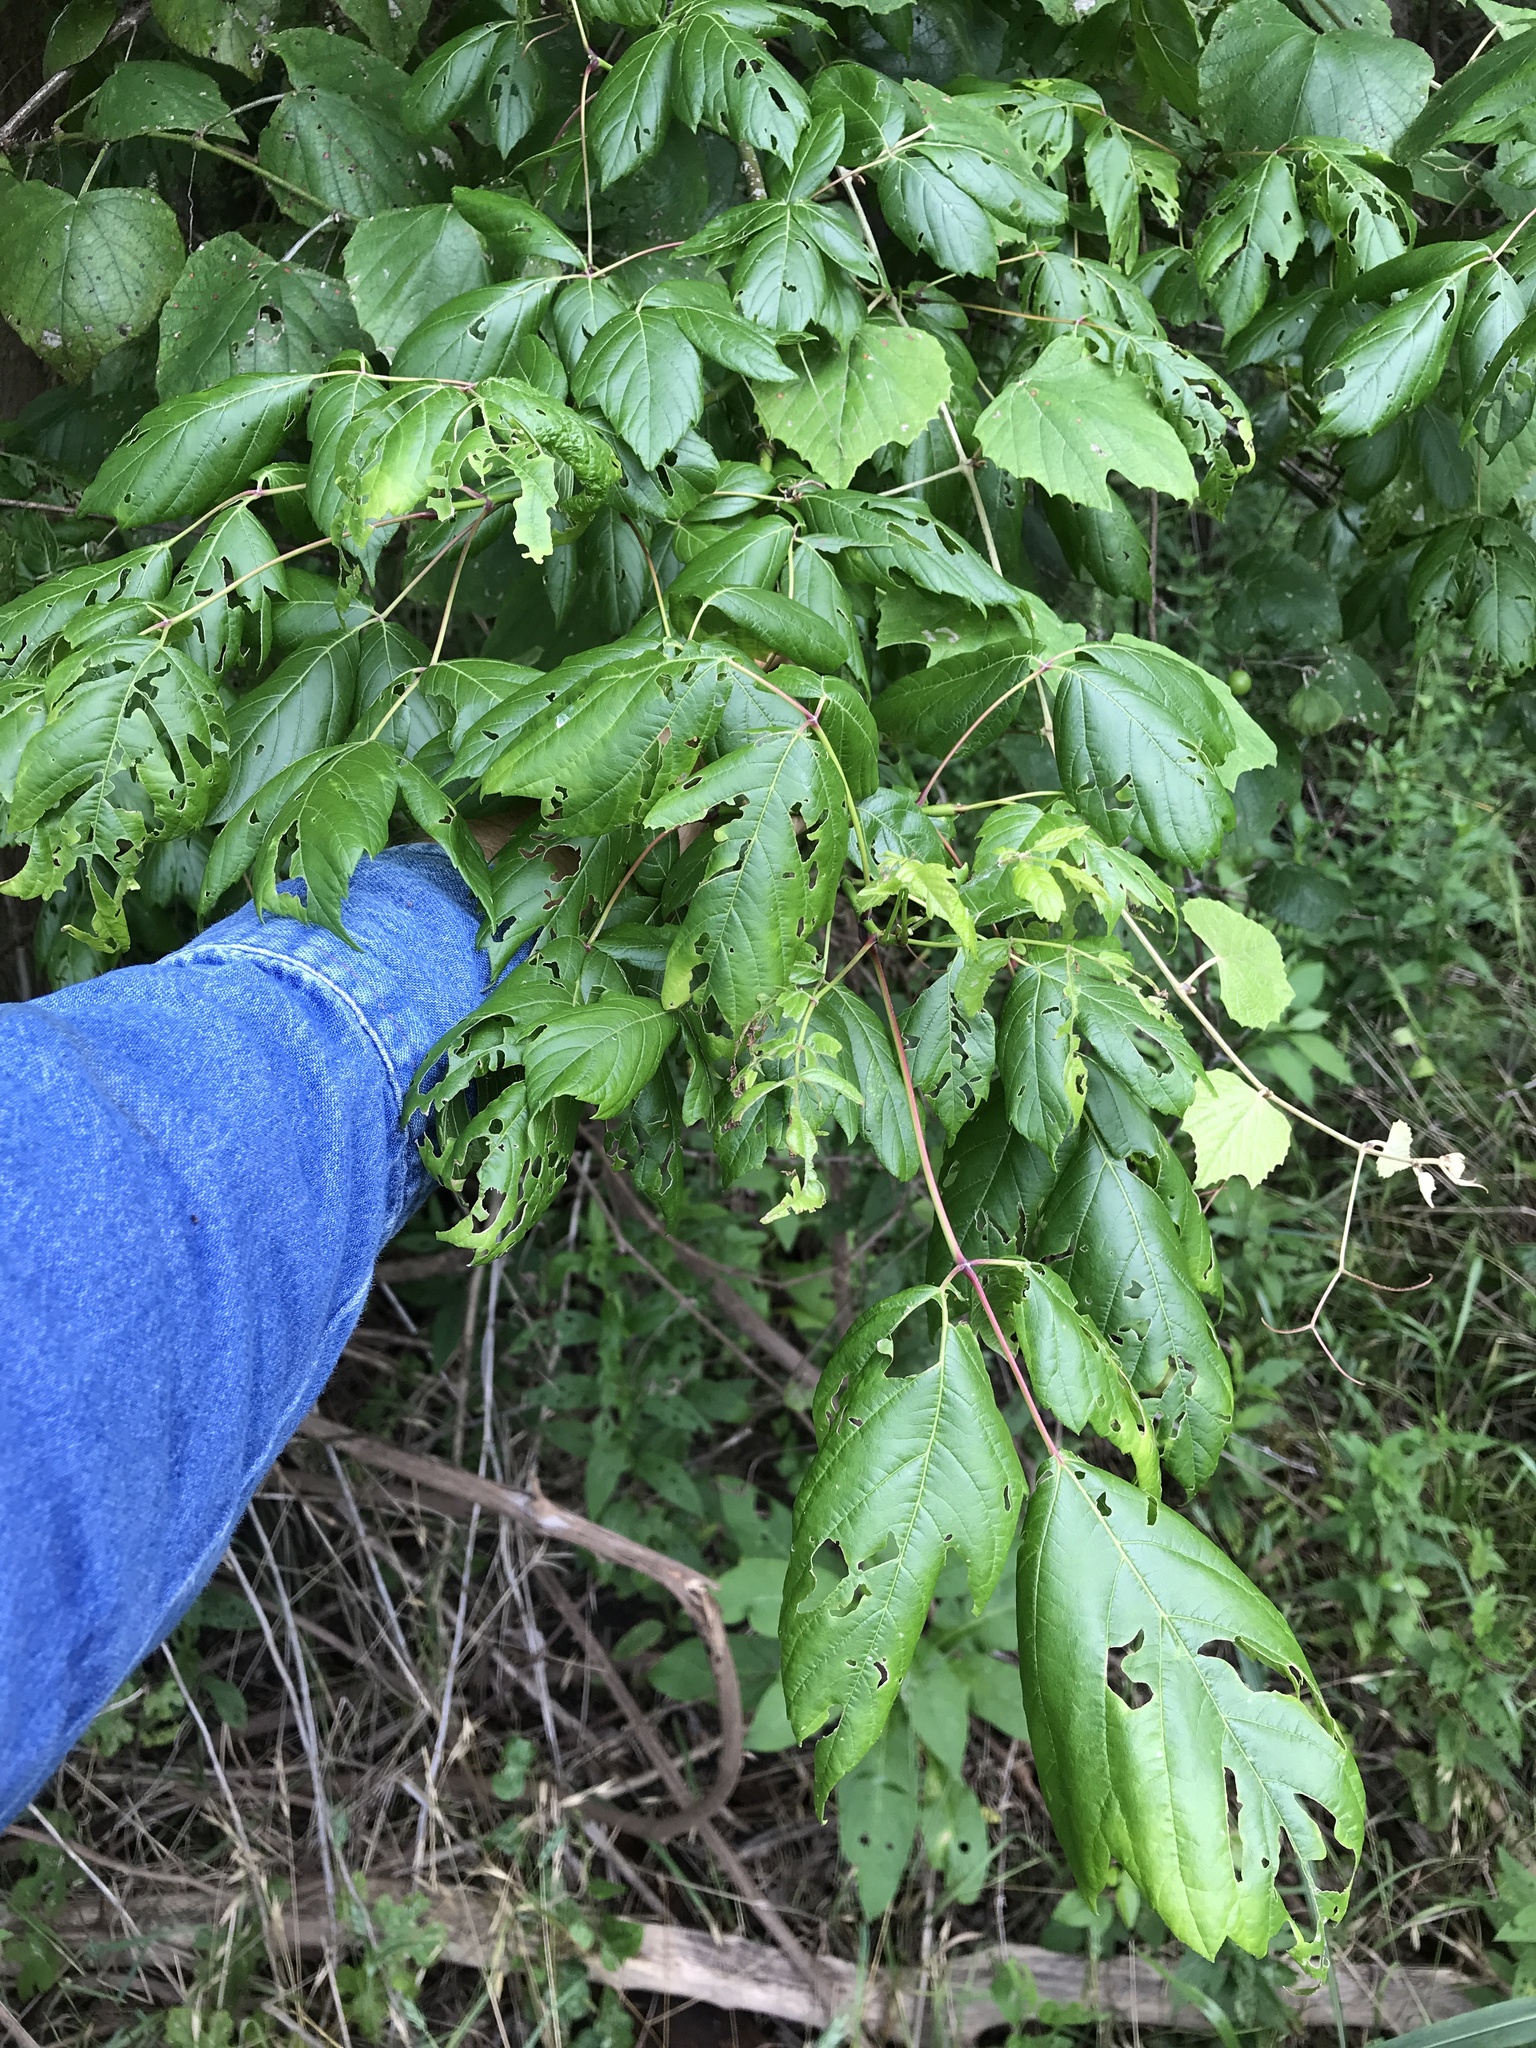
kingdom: Plantae
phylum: Tracheophyta
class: Magnoliopsida
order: Sapindales
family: Sapindaceae
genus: Acer
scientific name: Acer negundo
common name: Ashleaf maple
